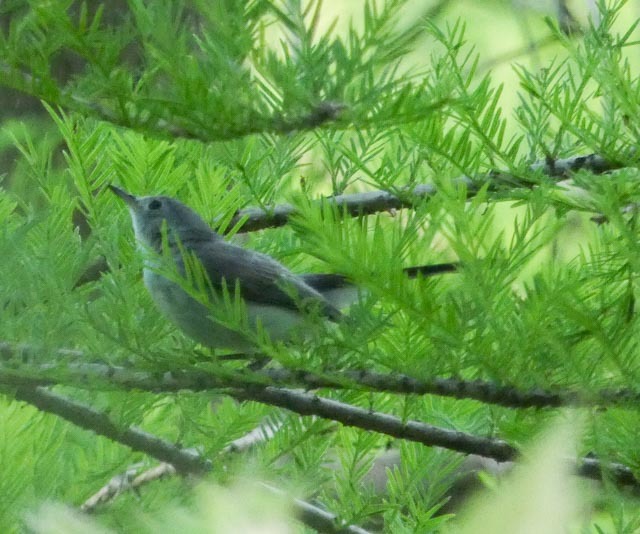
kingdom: Animalia
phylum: Chordata
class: Aves
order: Passeriformes
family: Polioptilidae
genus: Polioptila
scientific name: Polioptila caerulea
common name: Blue-gray gnatcatcher
